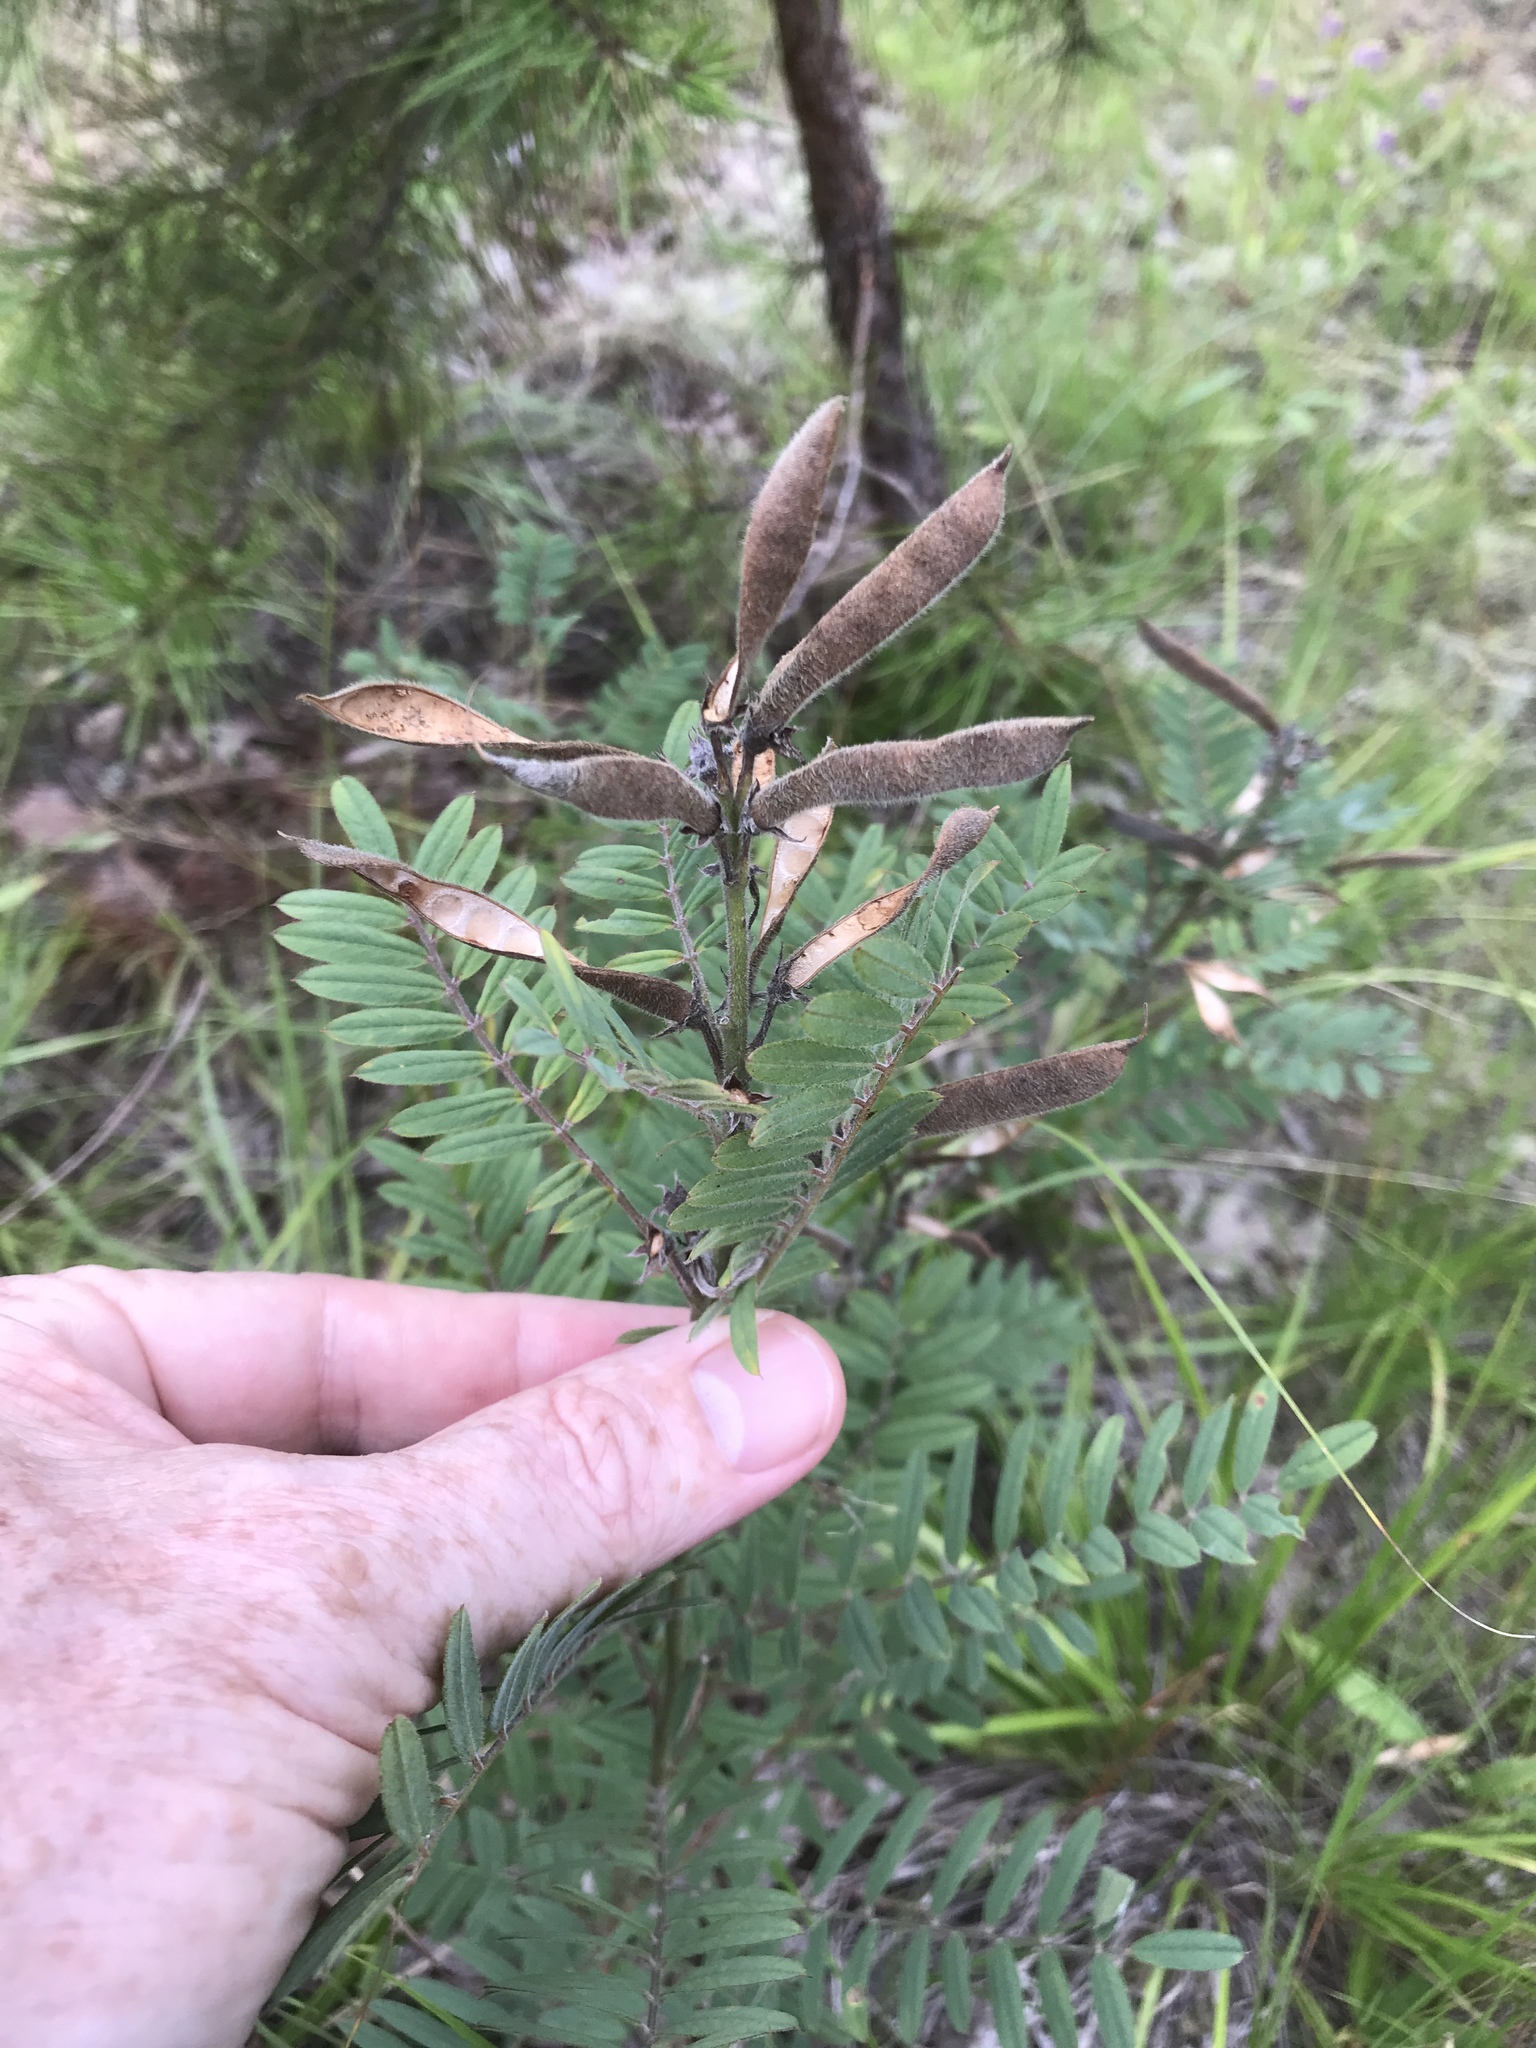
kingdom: Plantae
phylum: Tracheophyta
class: Magnoliopsida
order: Fabales
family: Fabaceae
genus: Tephrosia
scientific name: Tephrosia virginiana
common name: Rabbit-pea
